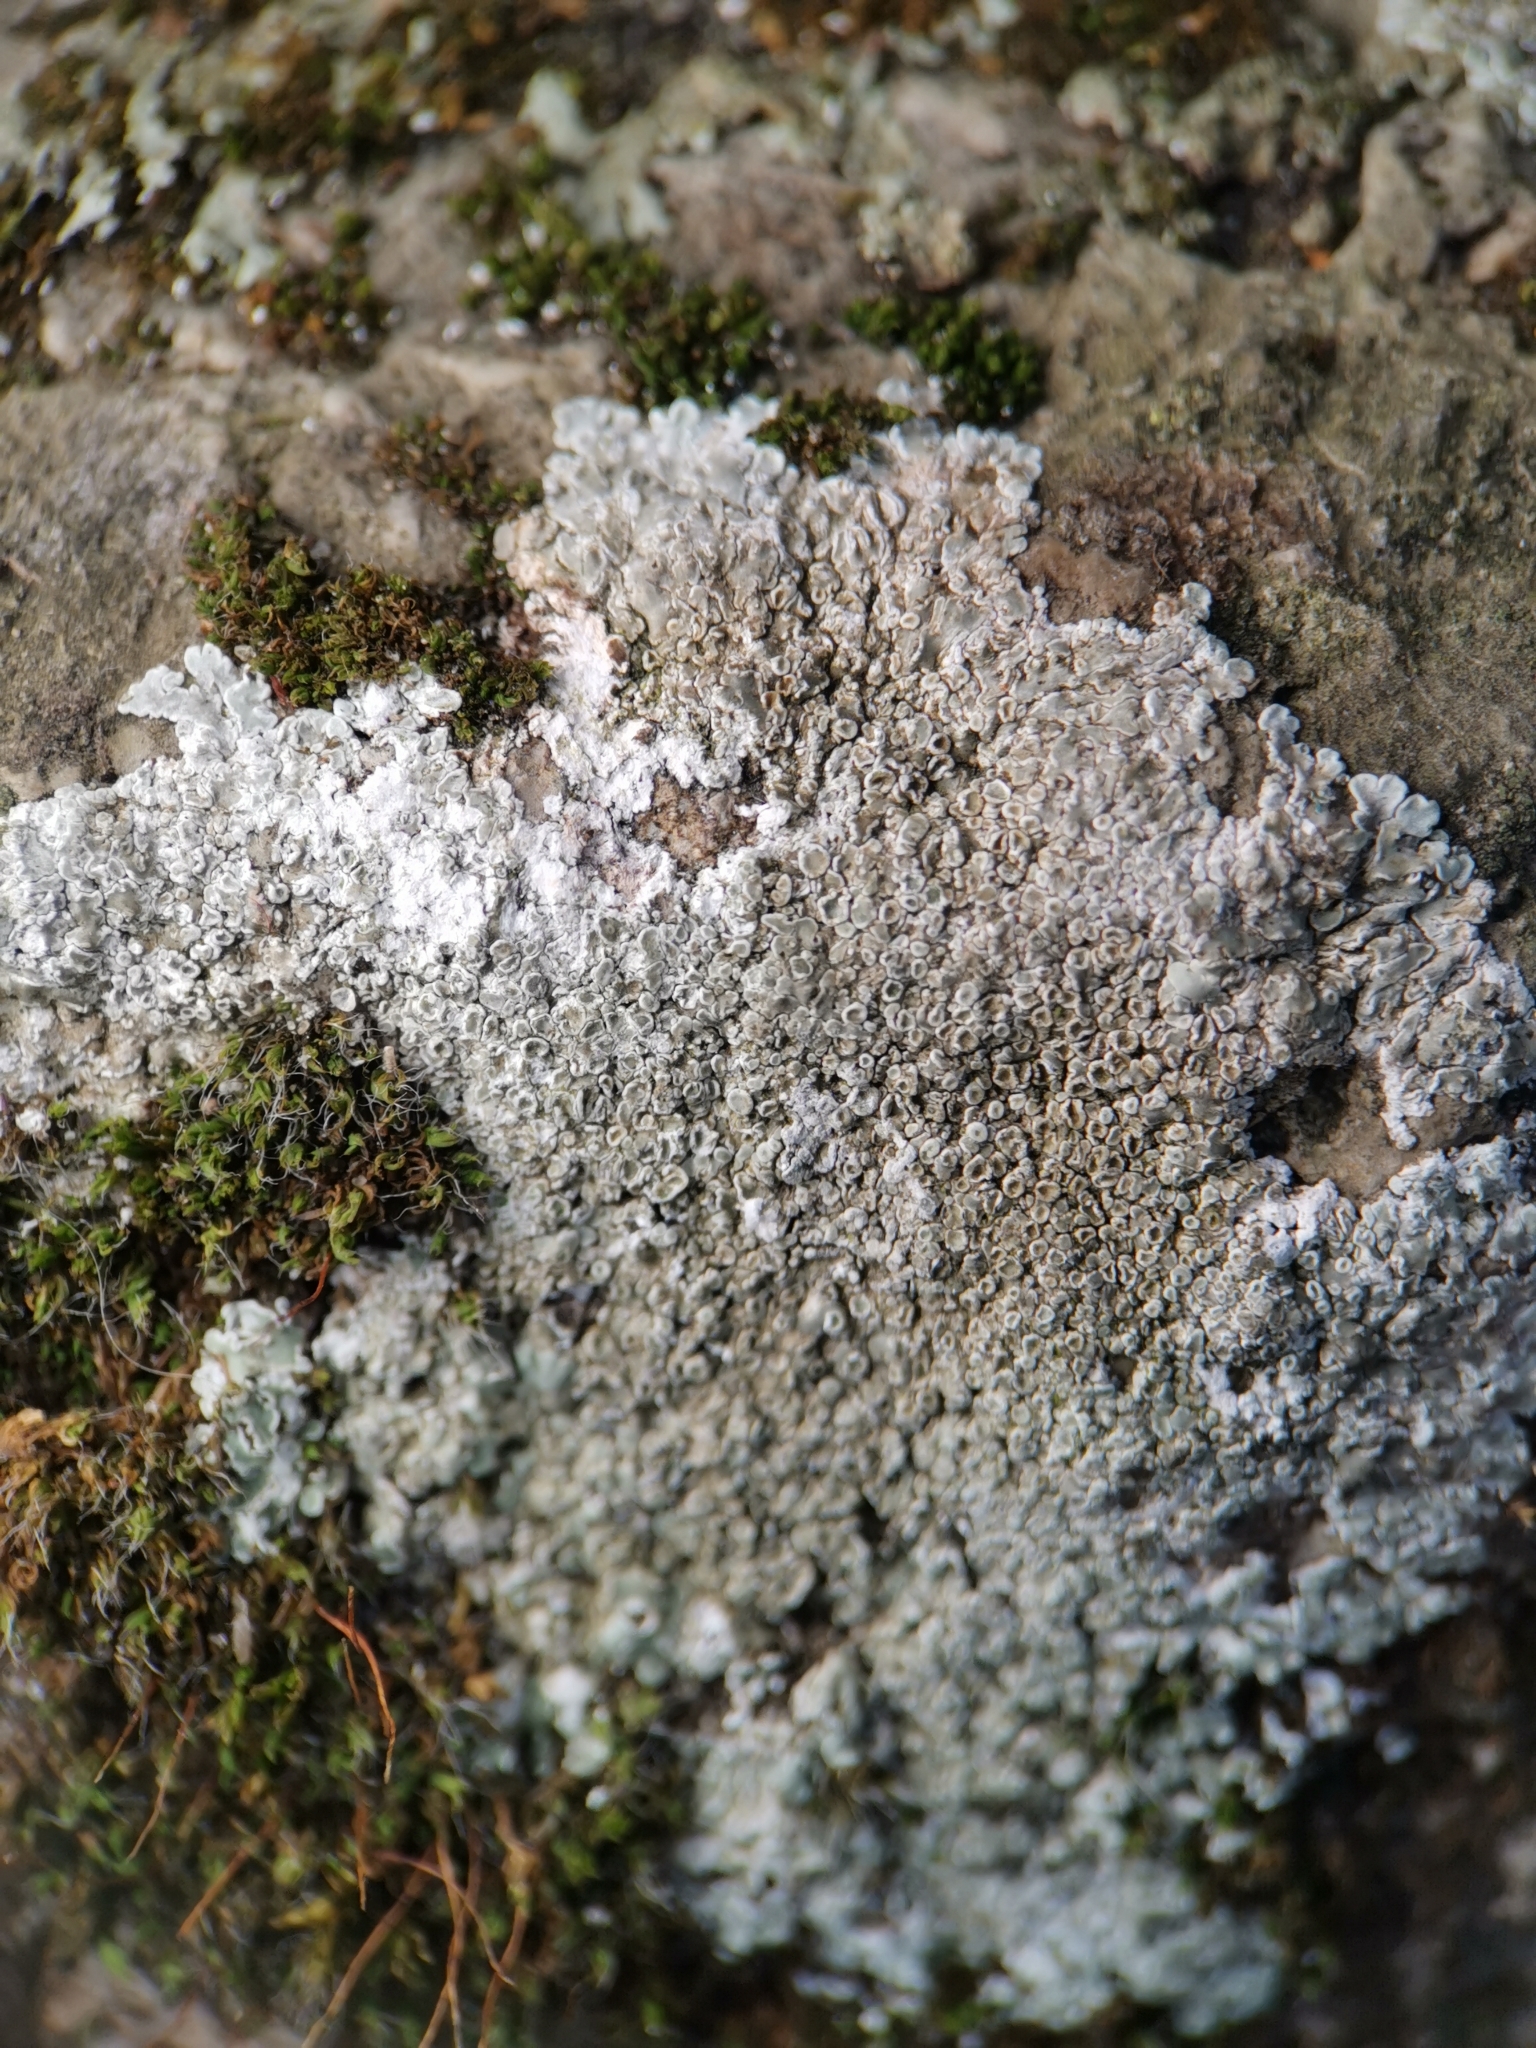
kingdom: Fungi
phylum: Ascomycota
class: Lecanoromycetes
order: Lecanorales
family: Lecanoraceae
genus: Protoparmeliopsis
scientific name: Protoparmeliopsis muralis
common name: Stonewall rim lichen
